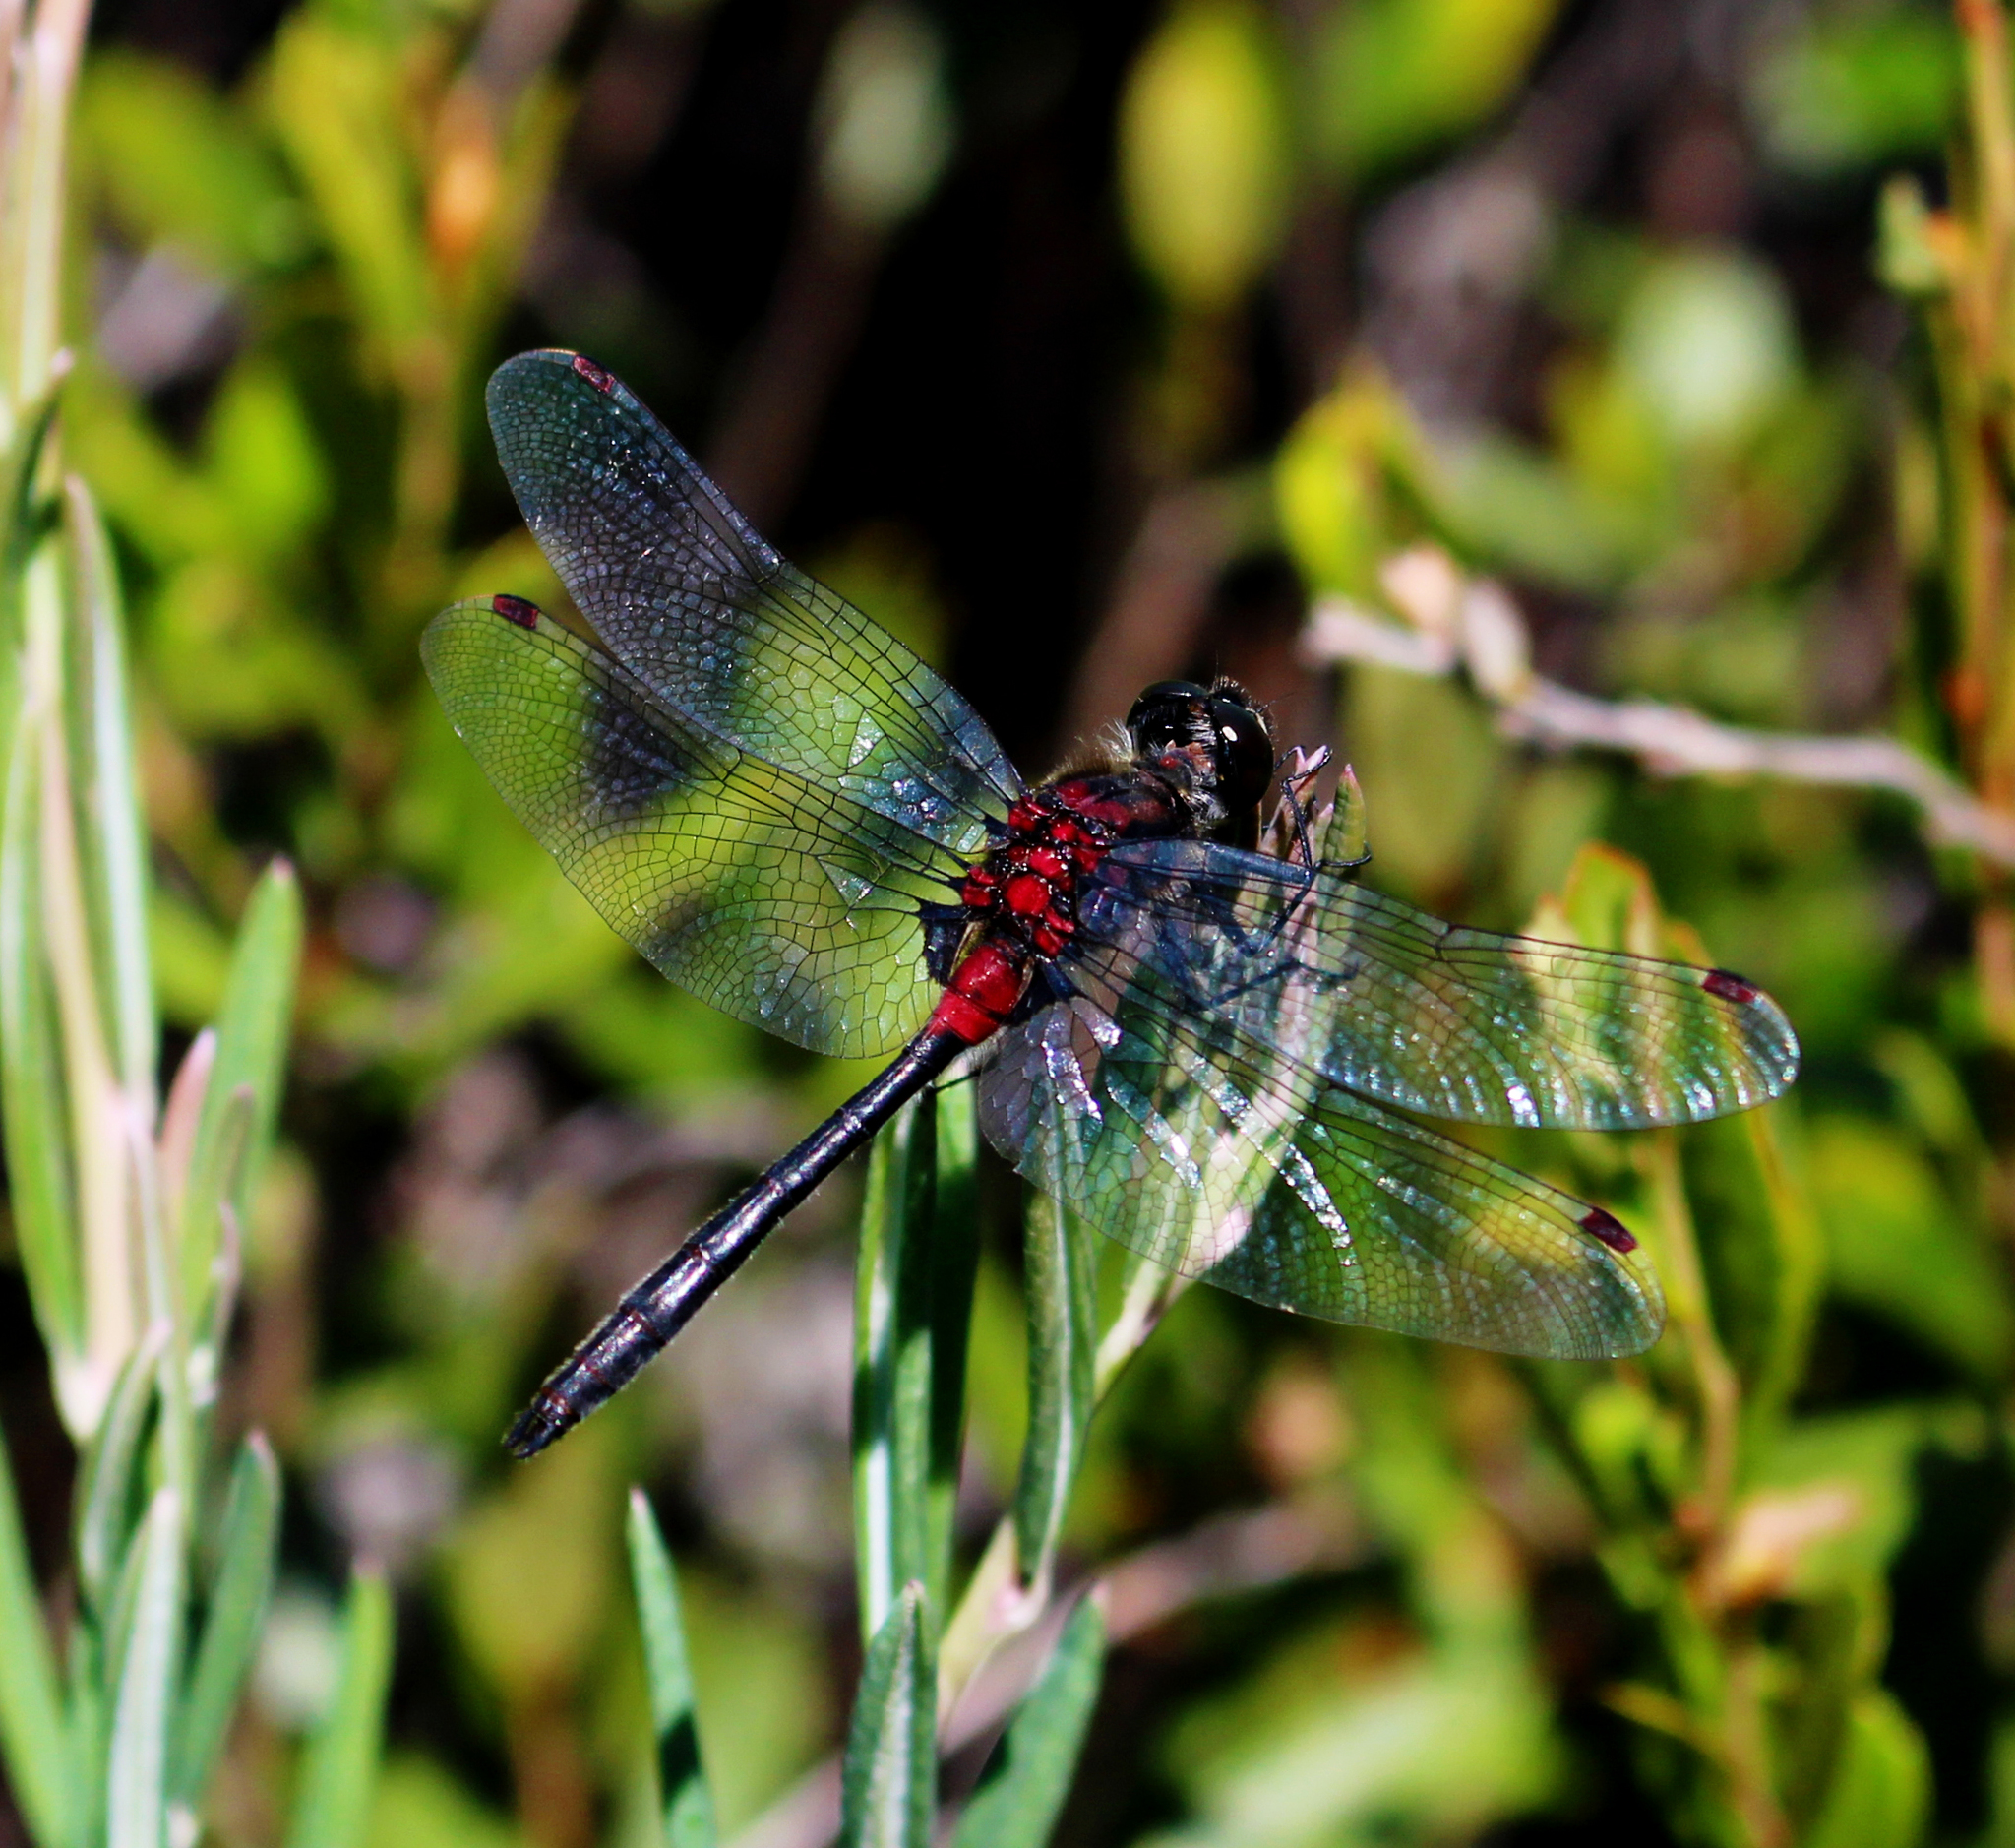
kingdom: Animalia
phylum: Arthropoda
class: Insecta
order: Odonata
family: Libellulidae
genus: Leucorrhinia
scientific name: Leucorrhinia glacialis
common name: Crimson-ringed whiteface
